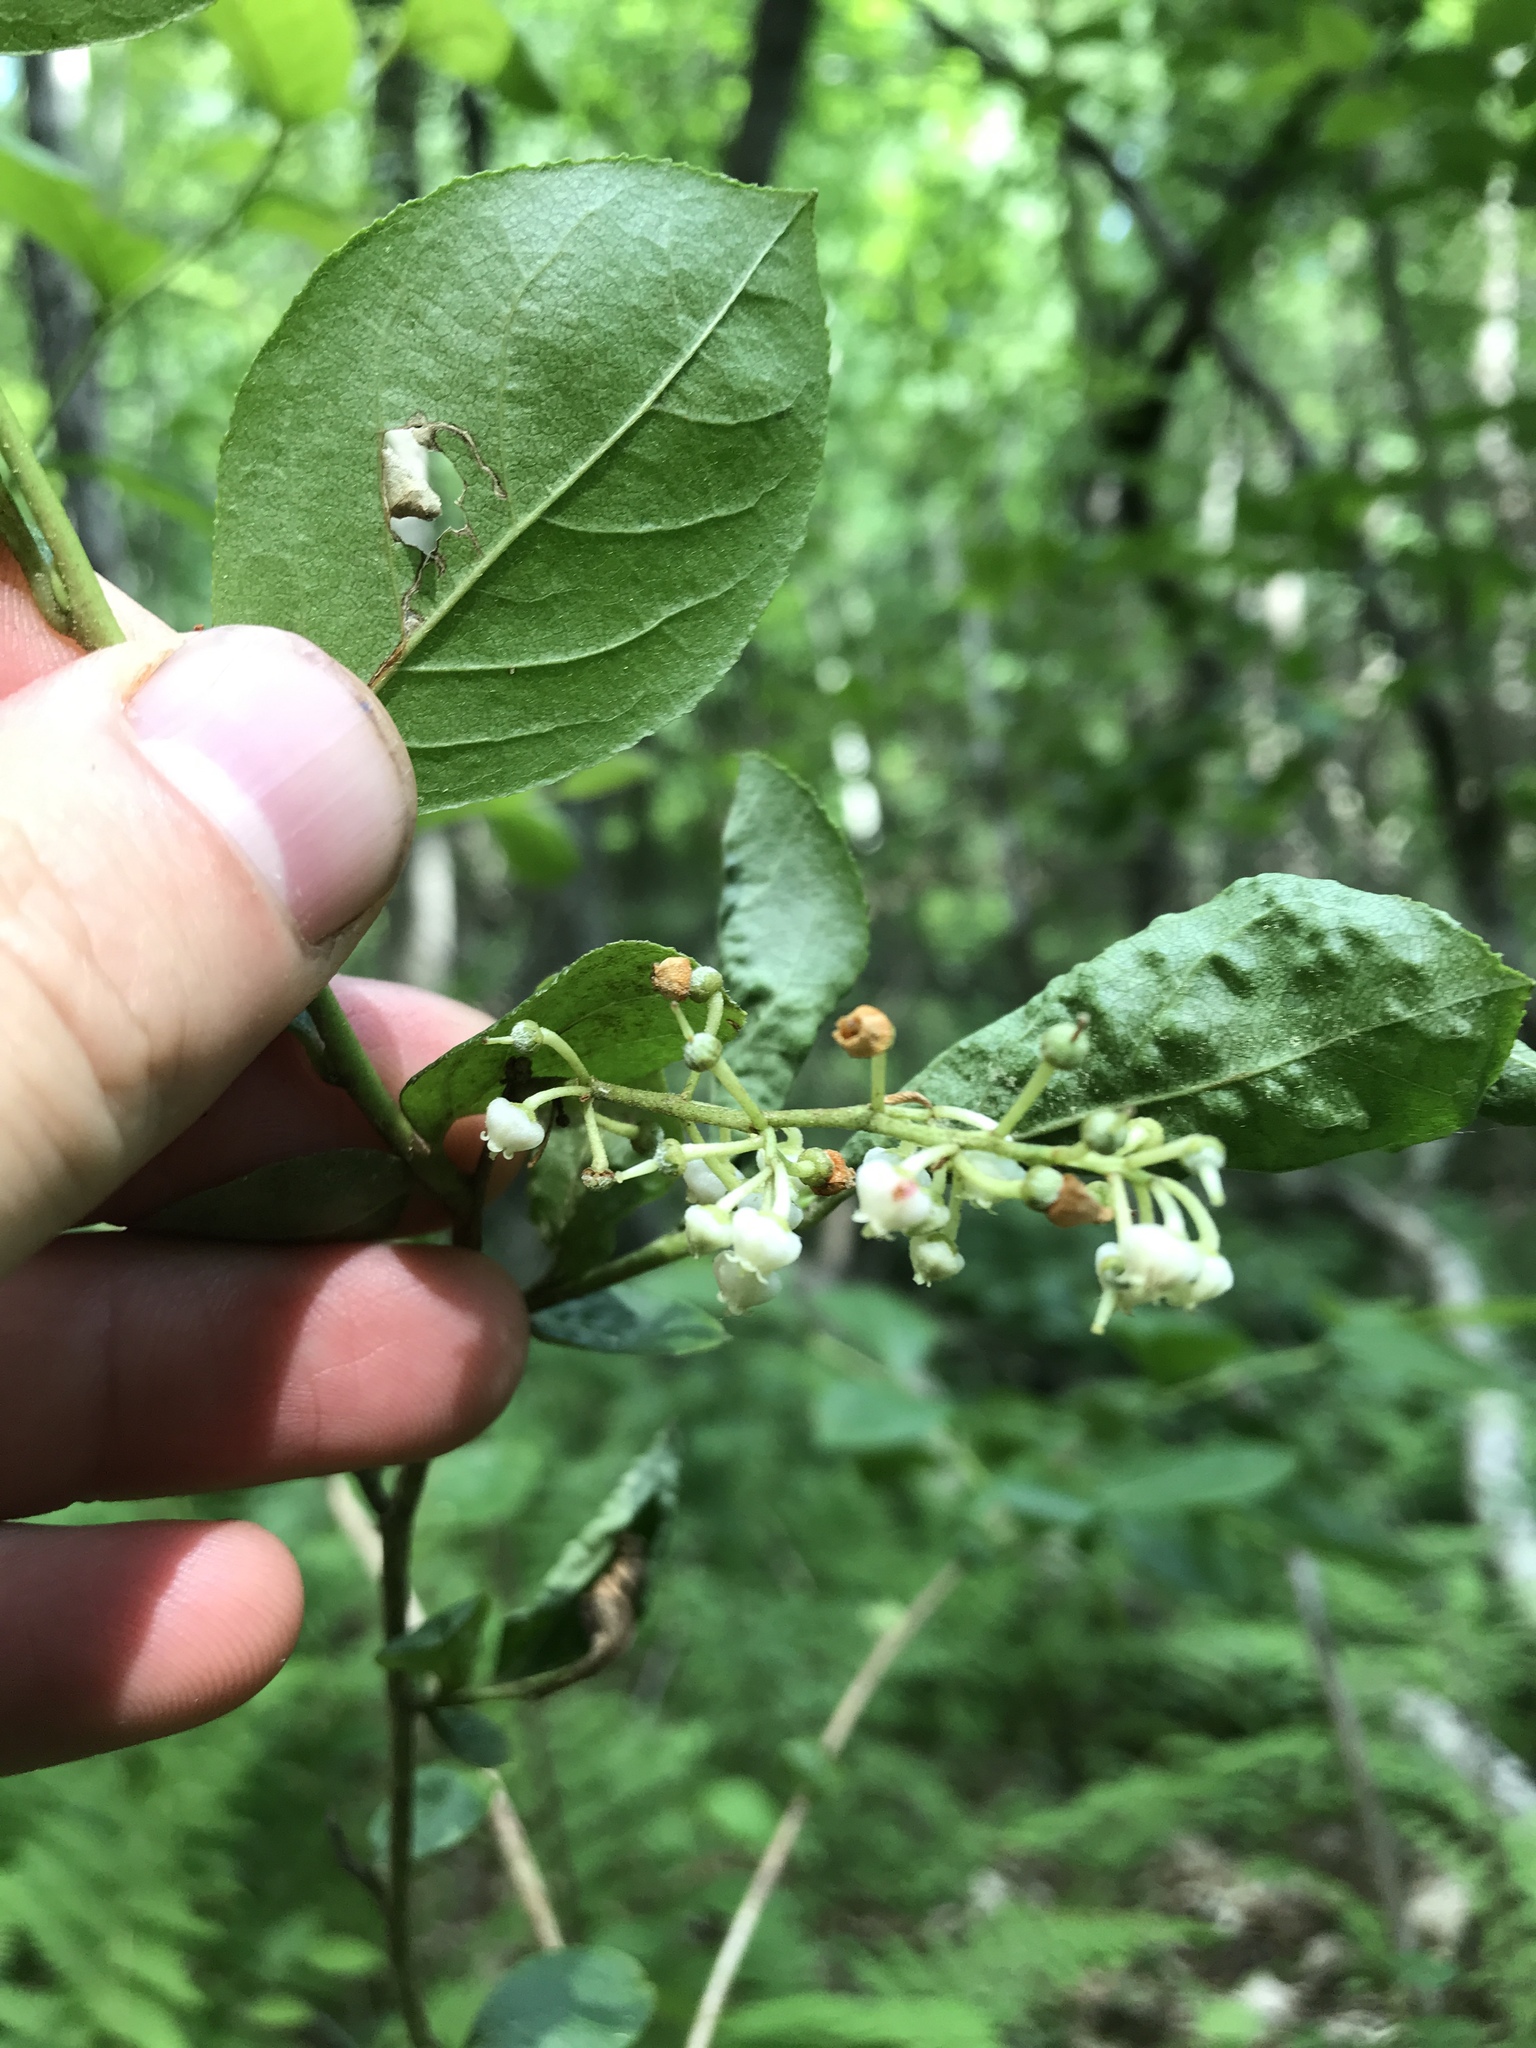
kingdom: Plantae
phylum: Tracheophyta
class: Magnoliopsida
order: Ericales
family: Ericaceae
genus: Lyonia
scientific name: Lyonia ligustrina
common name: Maleberry
